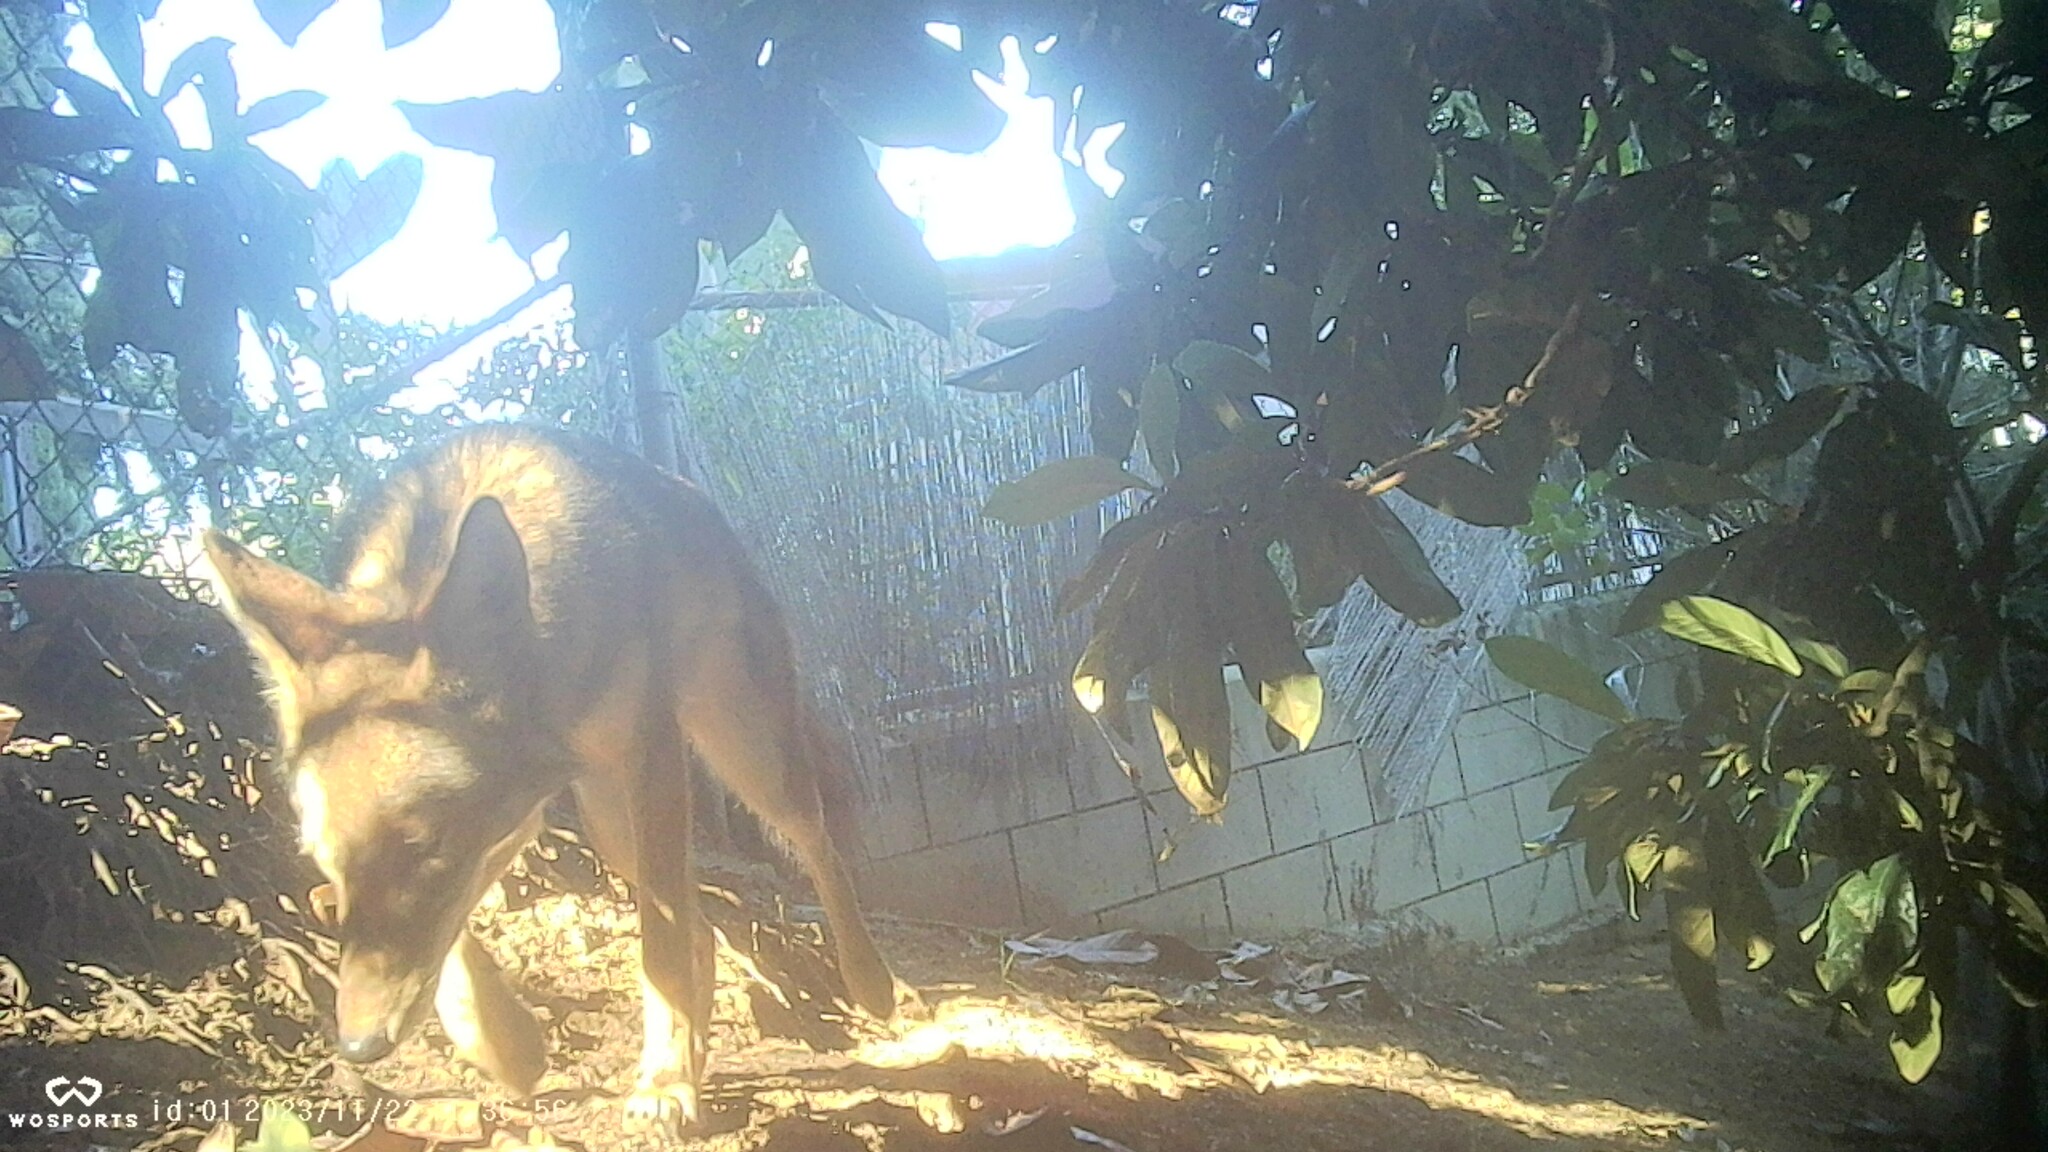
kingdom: Animalia
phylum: Chordata
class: Mammalia
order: Carnivora
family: Canidae
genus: Canis
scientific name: Canis latrans
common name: Coyote
